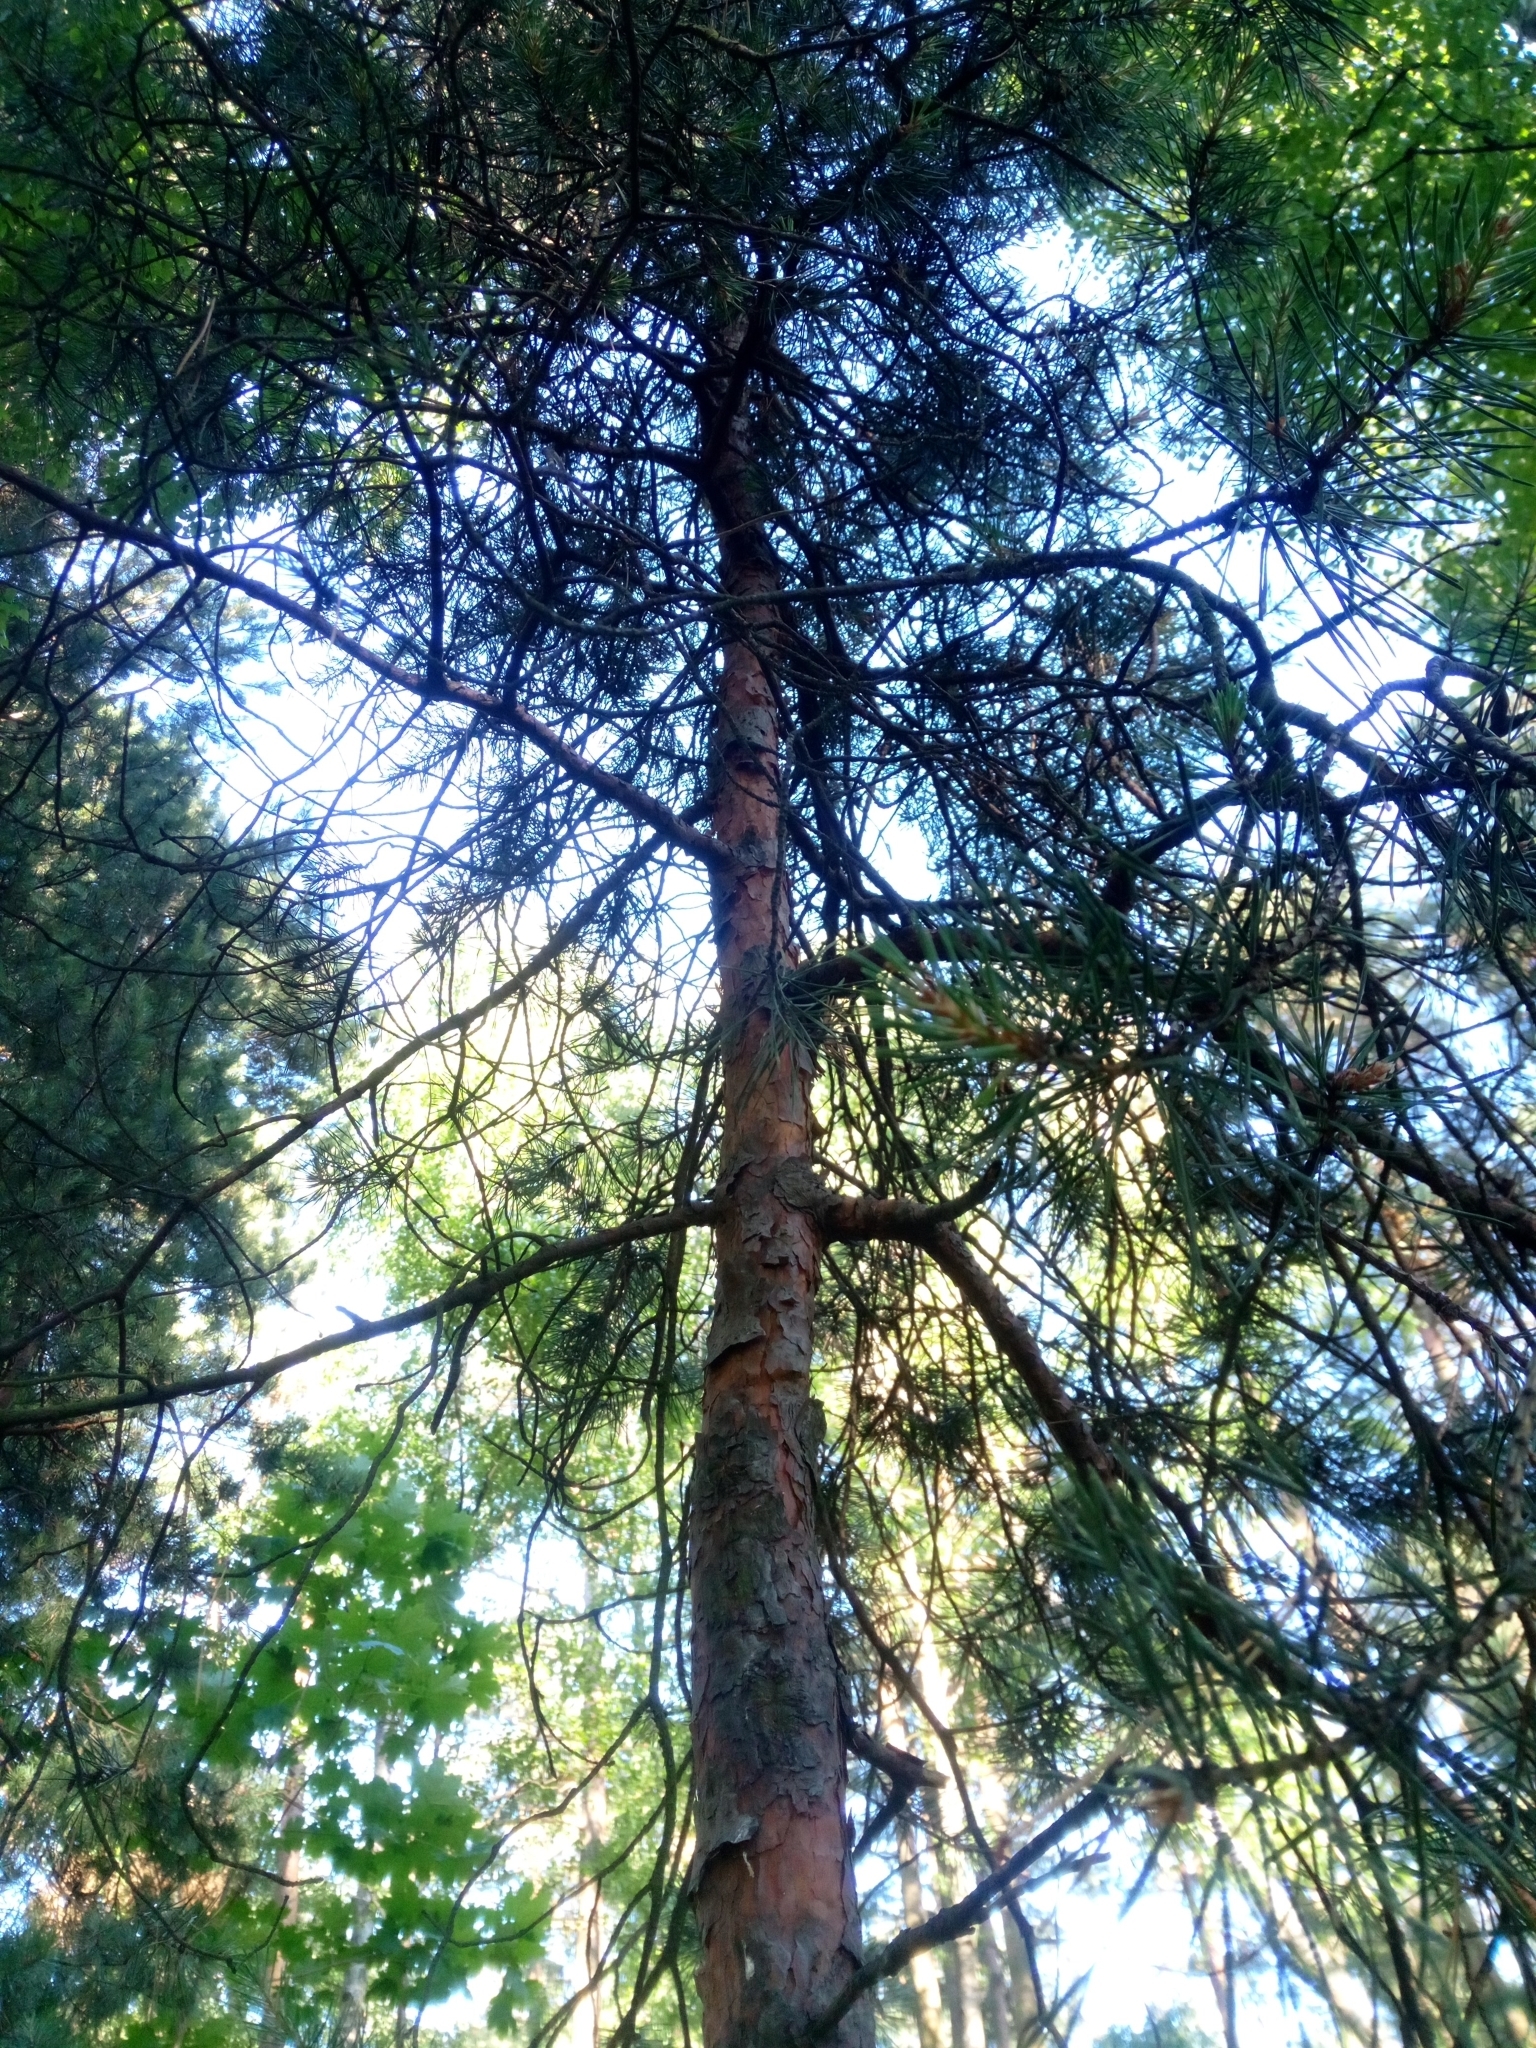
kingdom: Plantae
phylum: Tracheophyta
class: Pinopsida
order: Pinales
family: Pinaceae
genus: Pinus
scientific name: Pinus sylvestris
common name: Scots pine
